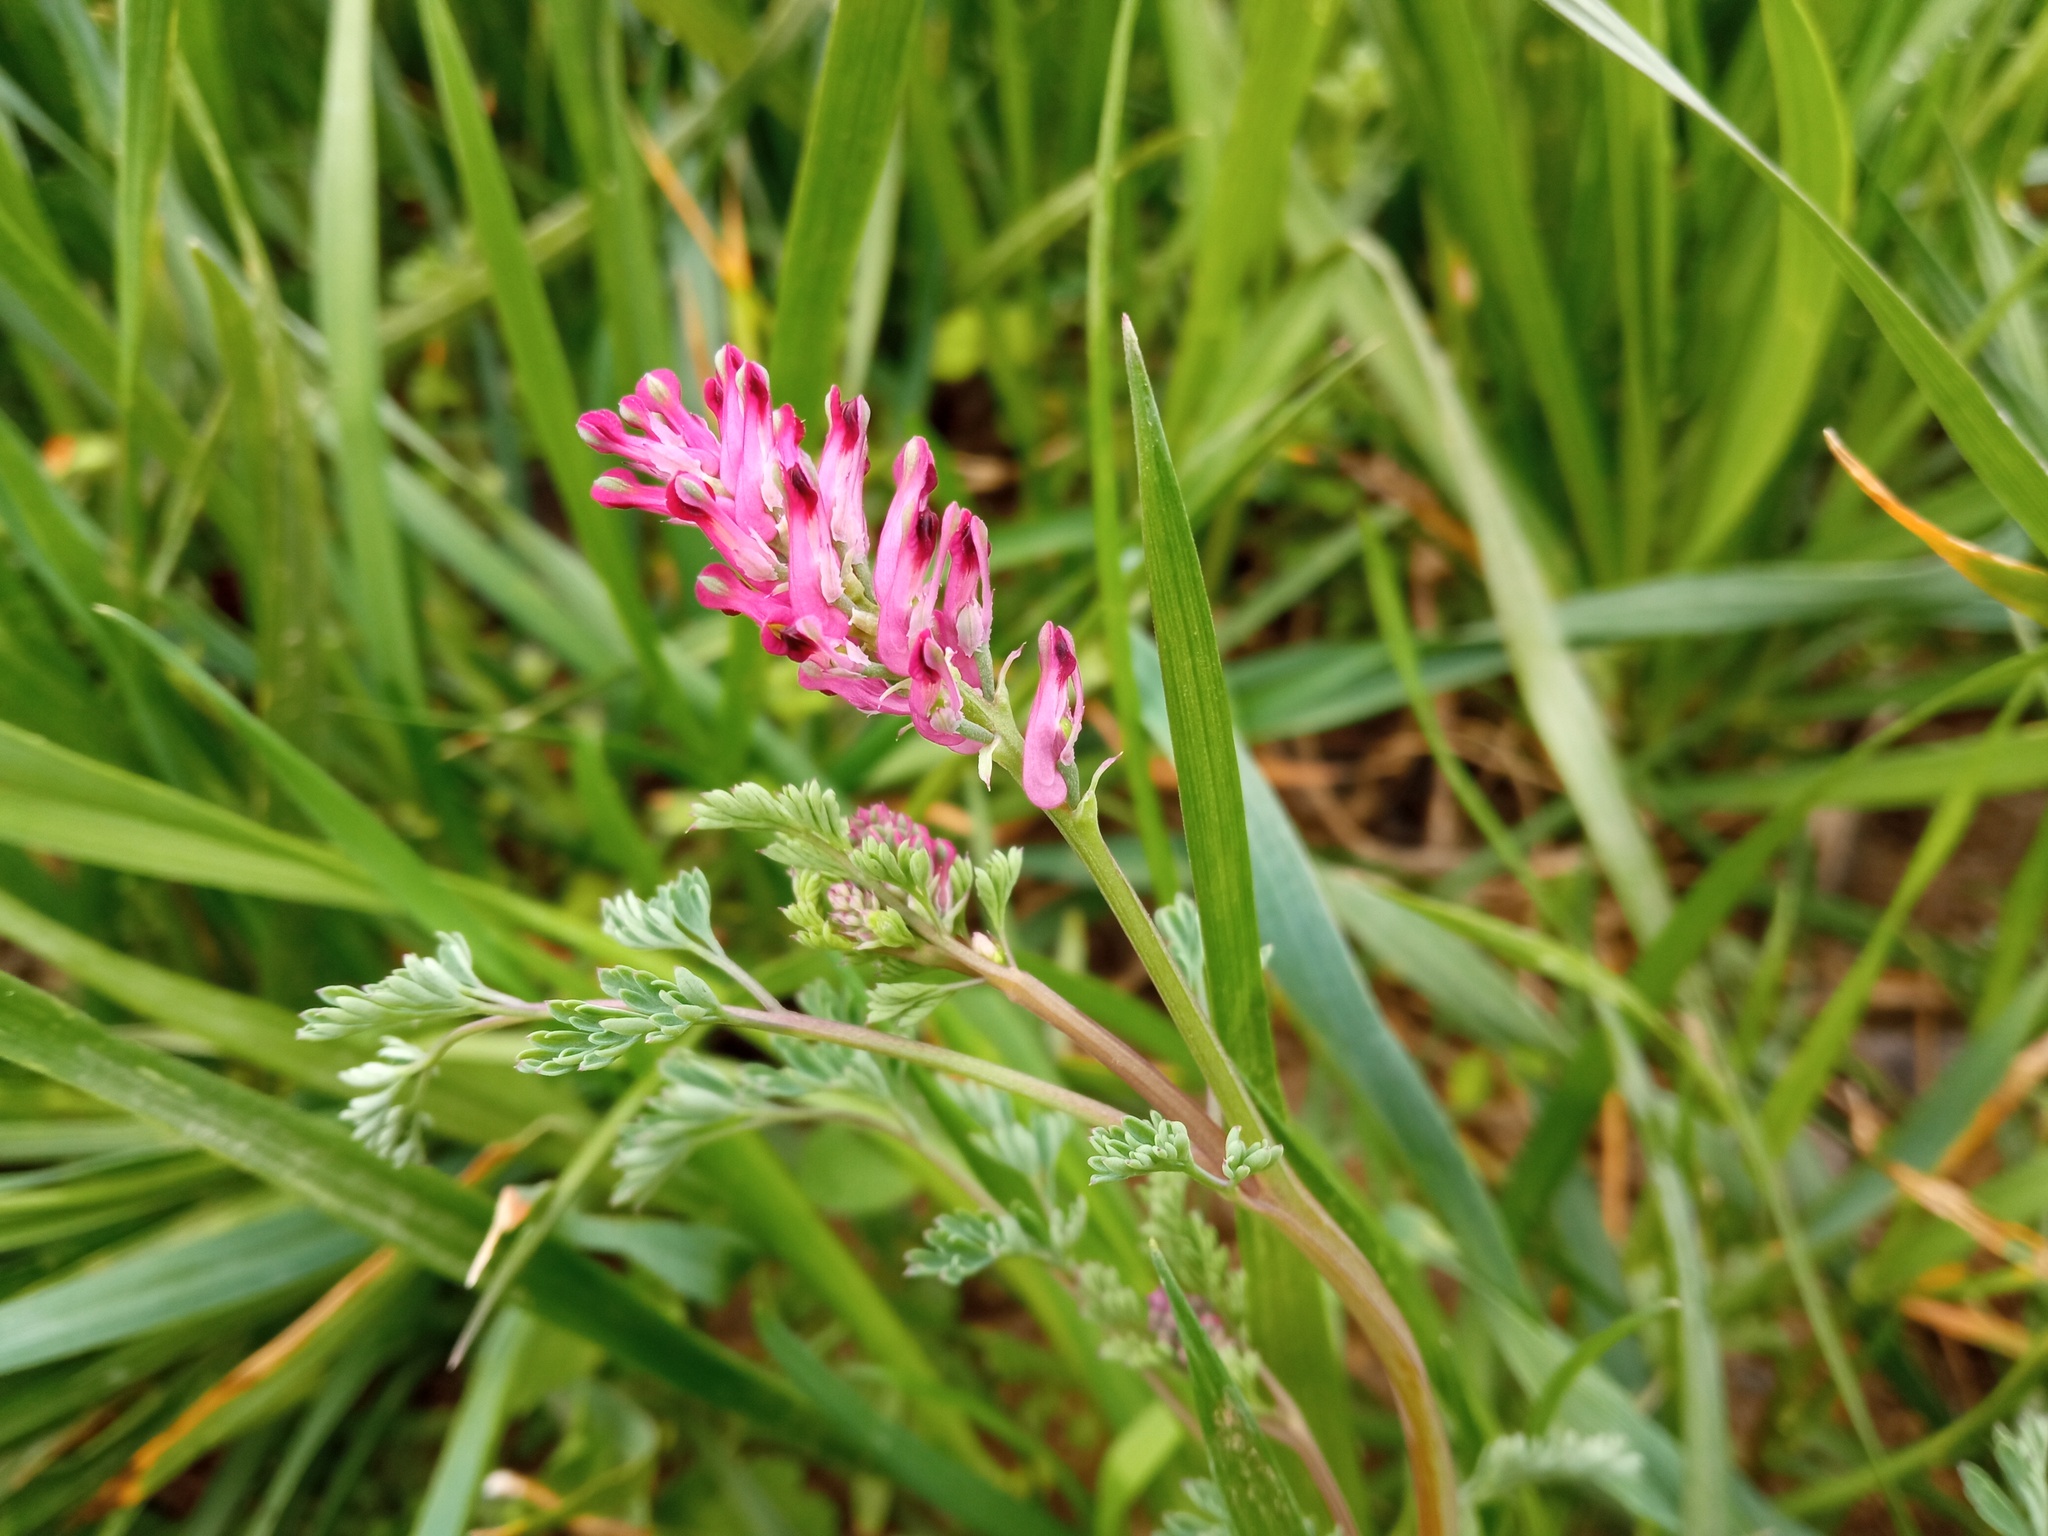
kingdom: Plantae
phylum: Tracheophyta
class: Magnoliopsida
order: Ranunculales
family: Papaveraceae
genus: Fumaria
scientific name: Fumaria officinalis
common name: Common fumitory
